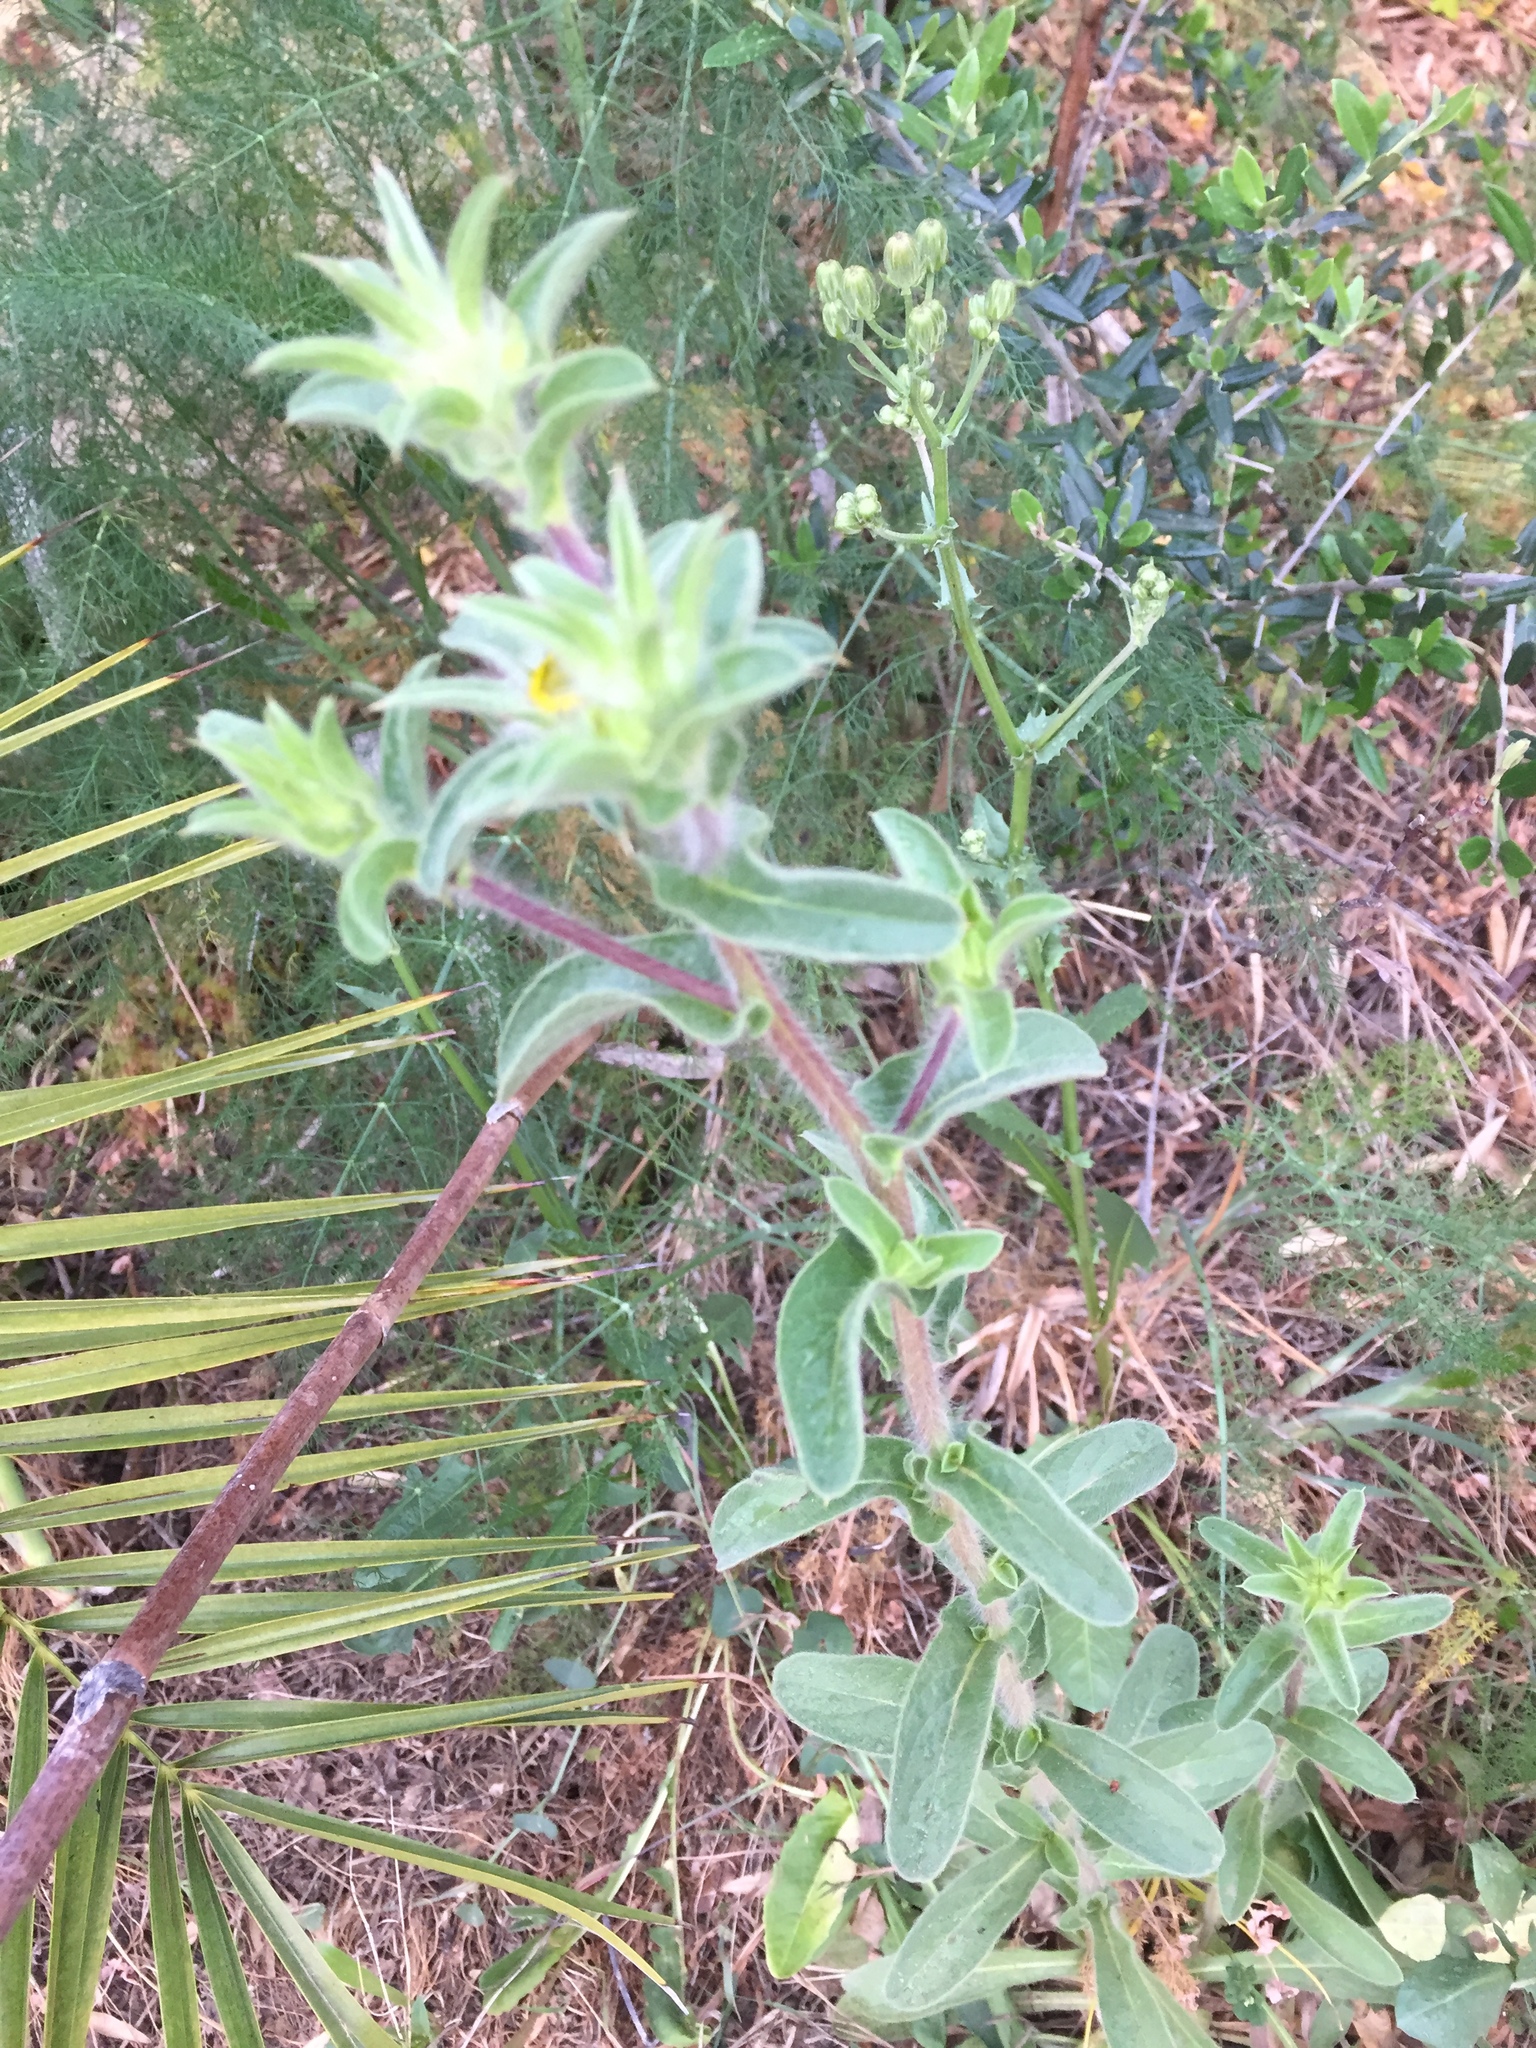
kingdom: Plantae
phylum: Tracheophyta
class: Magnoliopsida
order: Asterales
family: Asteraceae
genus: Pallenis
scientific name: Pallenis spinosa
